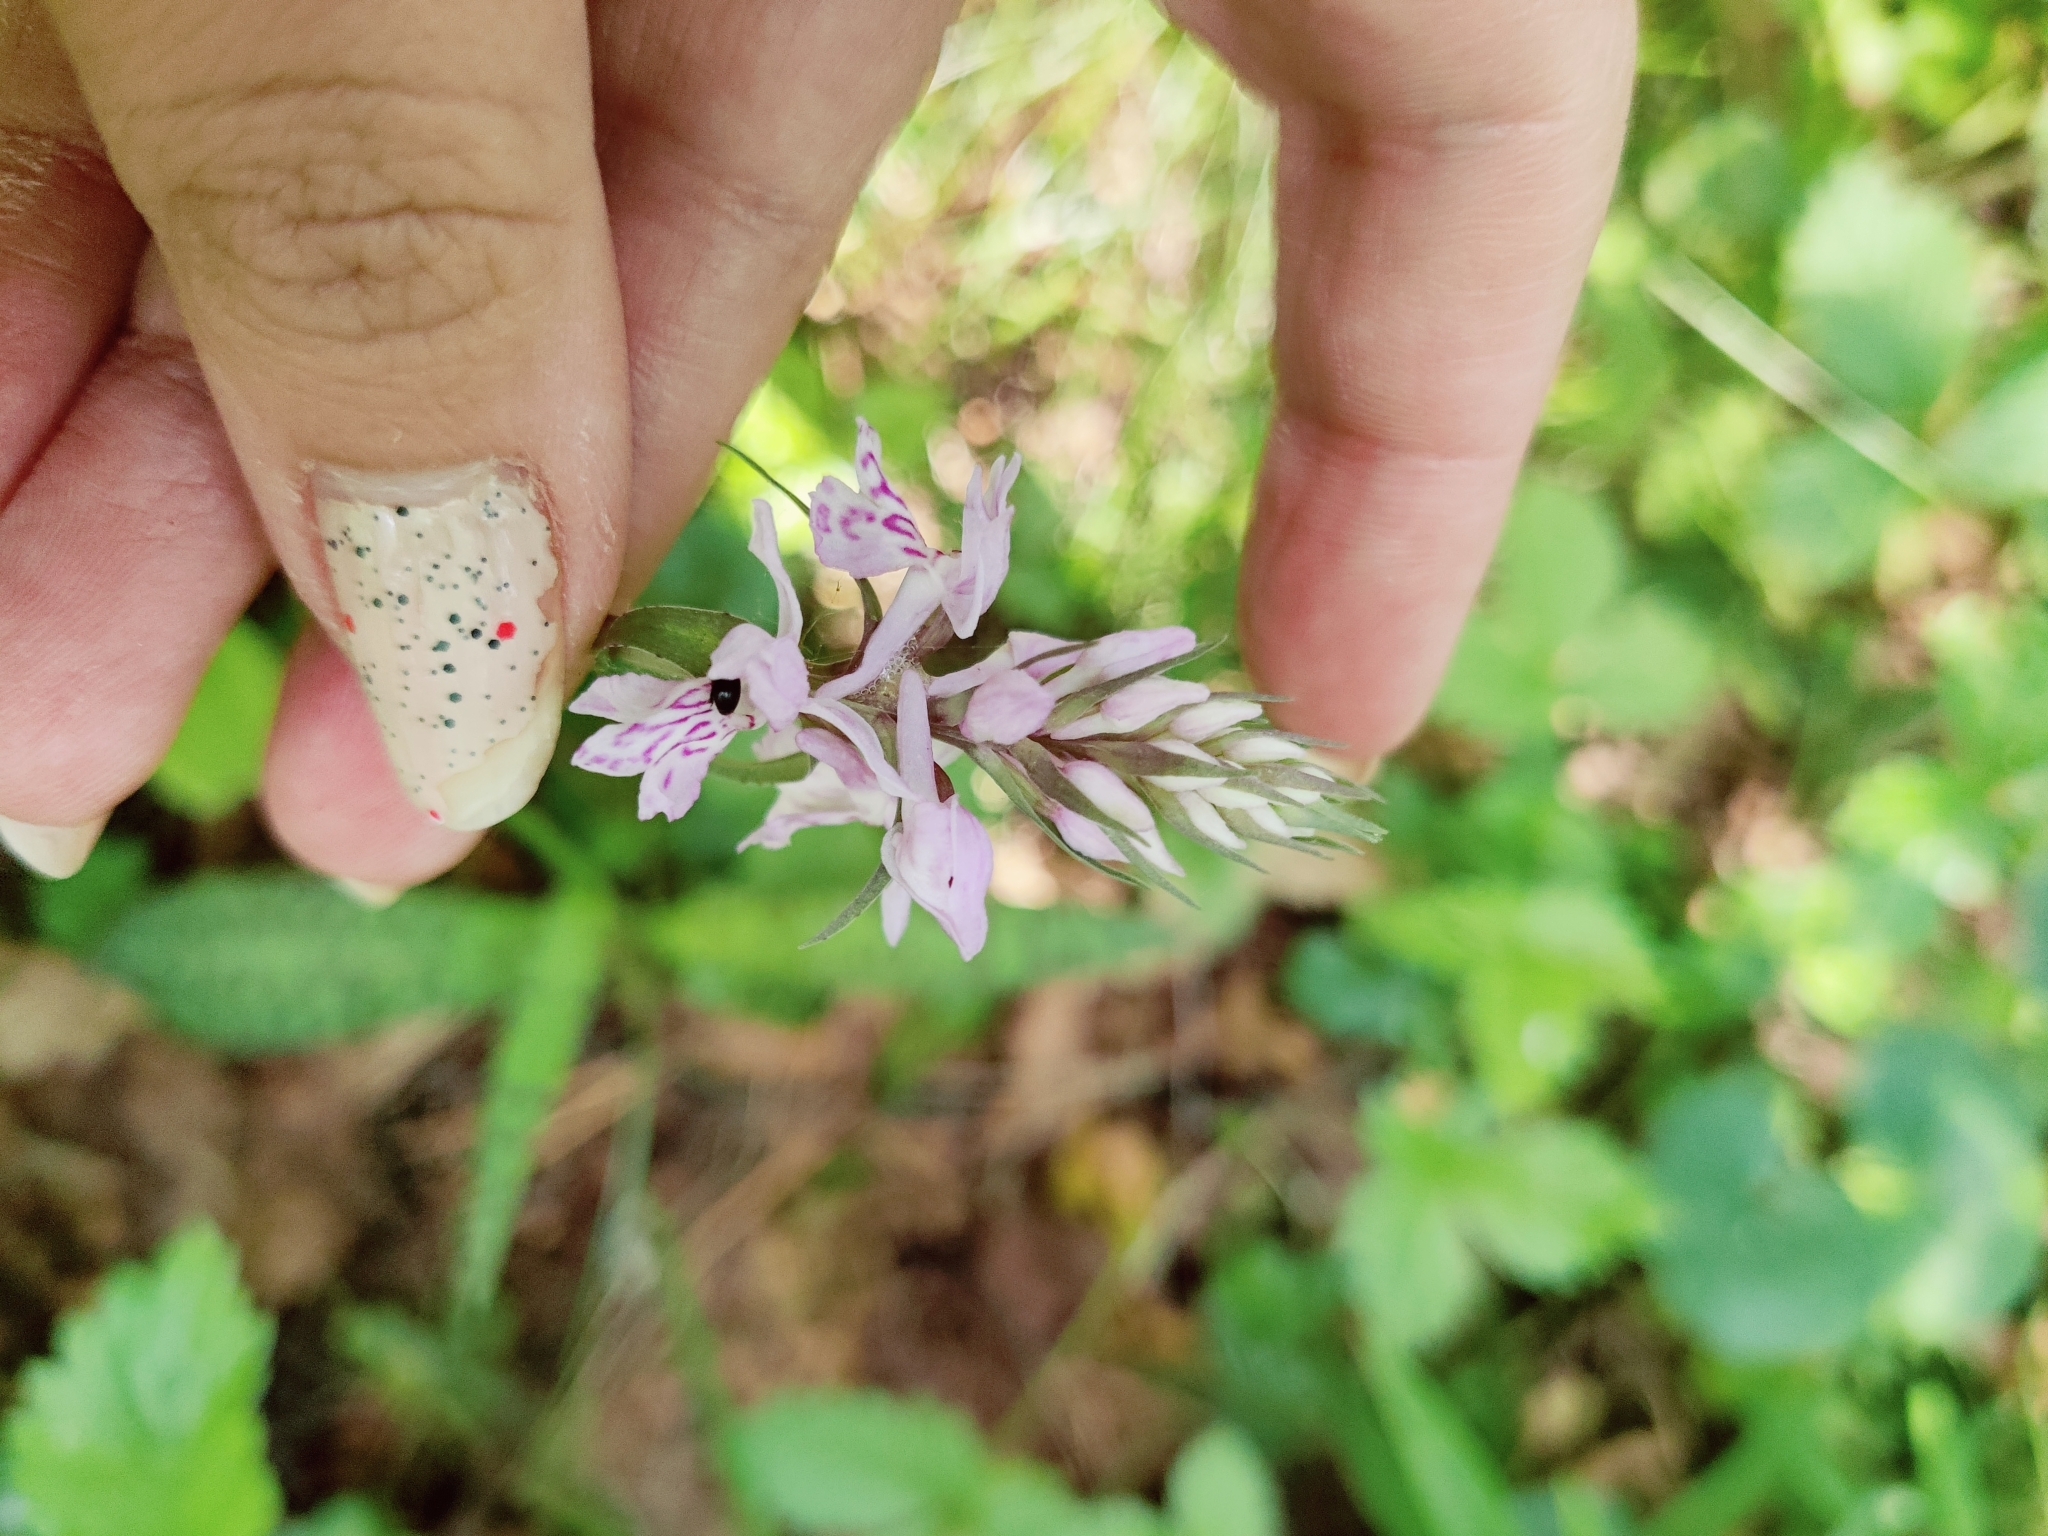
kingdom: Plantae
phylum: Tracheophyta
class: Liliopsida
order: Asparagales
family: Orchidaceae
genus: Dactylorhiza
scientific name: Dactylorhiza maculata
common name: Heath spotted-orchid
